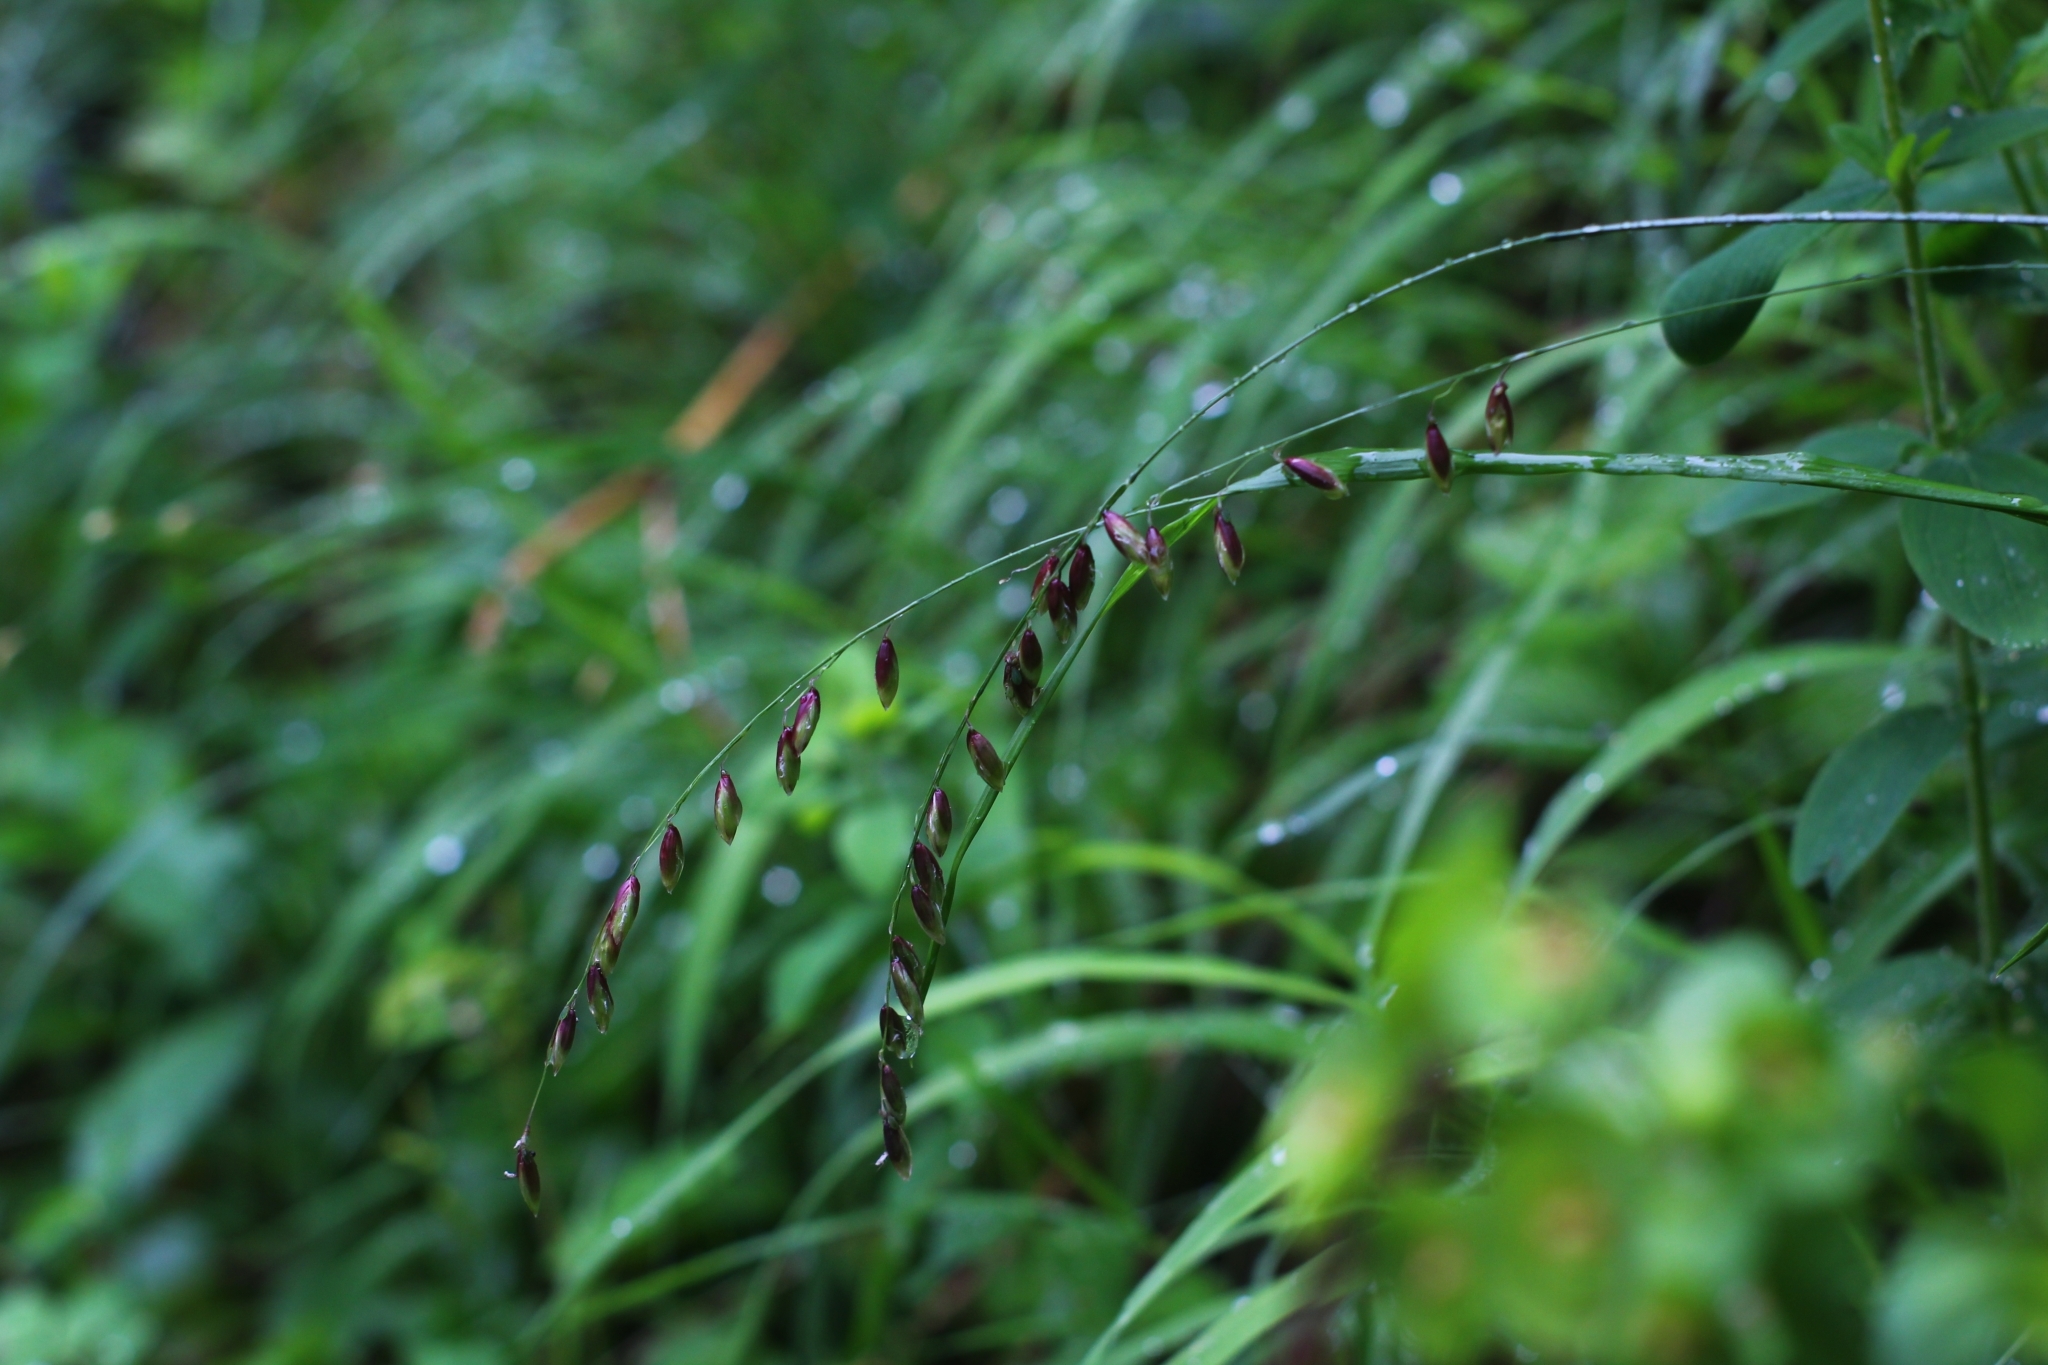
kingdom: Plantae
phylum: Tracheophyta
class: Liliopsida
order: Poales
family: Poaceae
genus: Melica
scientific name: Melica nutans
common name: Mountain melick
